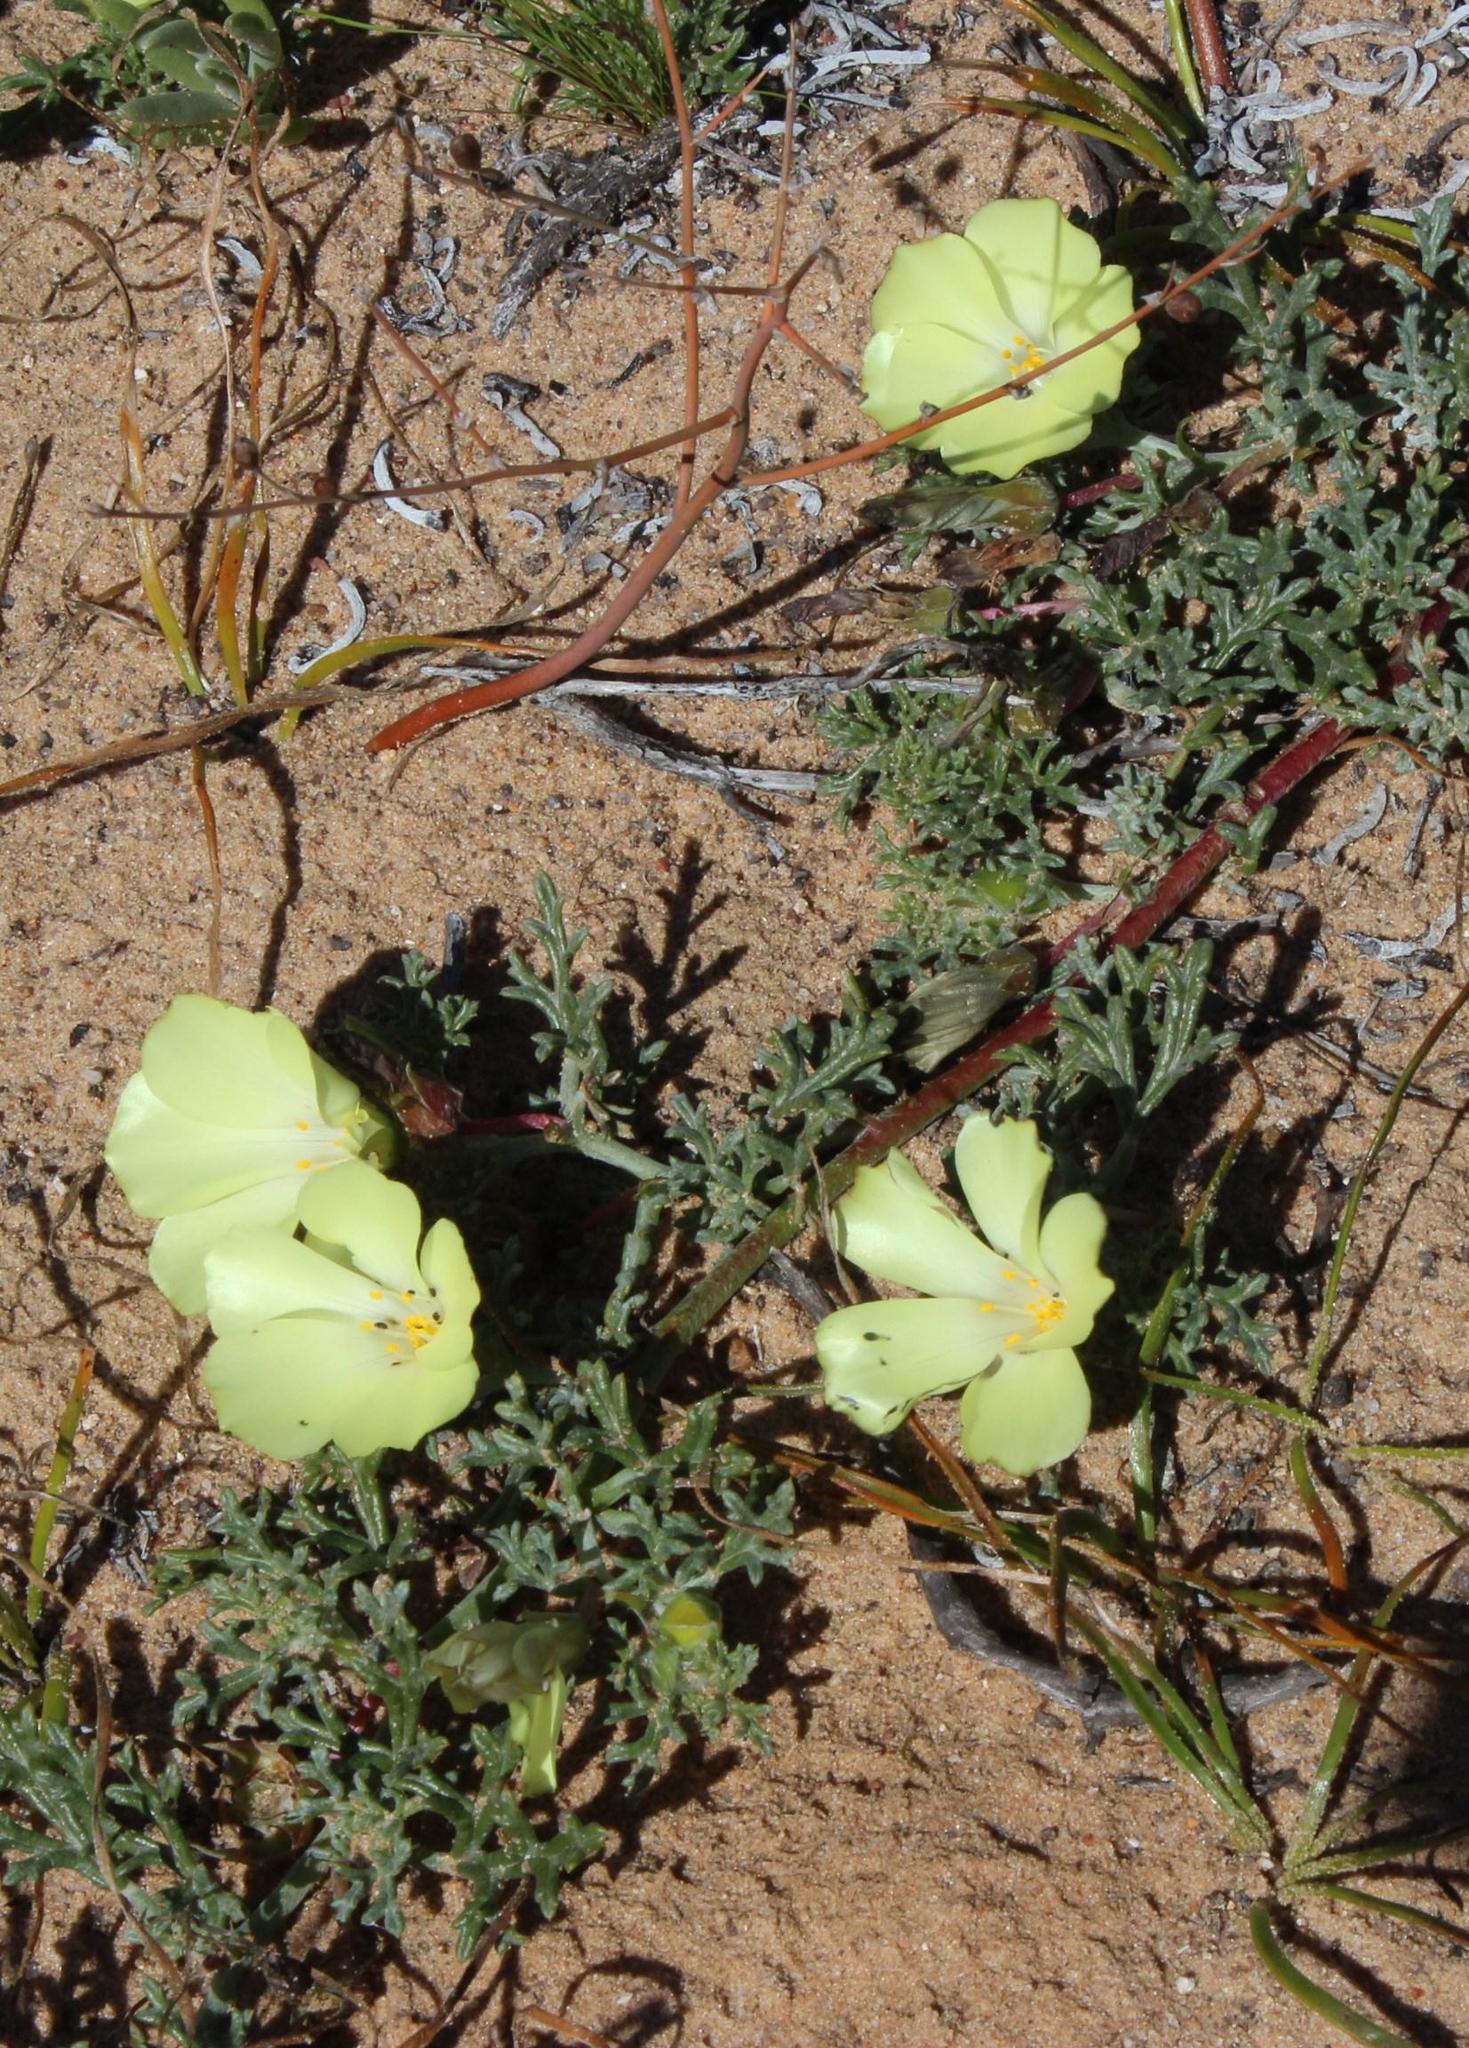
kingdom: Plantae
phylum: Tracheophyta
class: Magnoliopsida
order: Malvales
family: Neuradaceae
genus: Grielum
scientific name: Grielum humifusum
